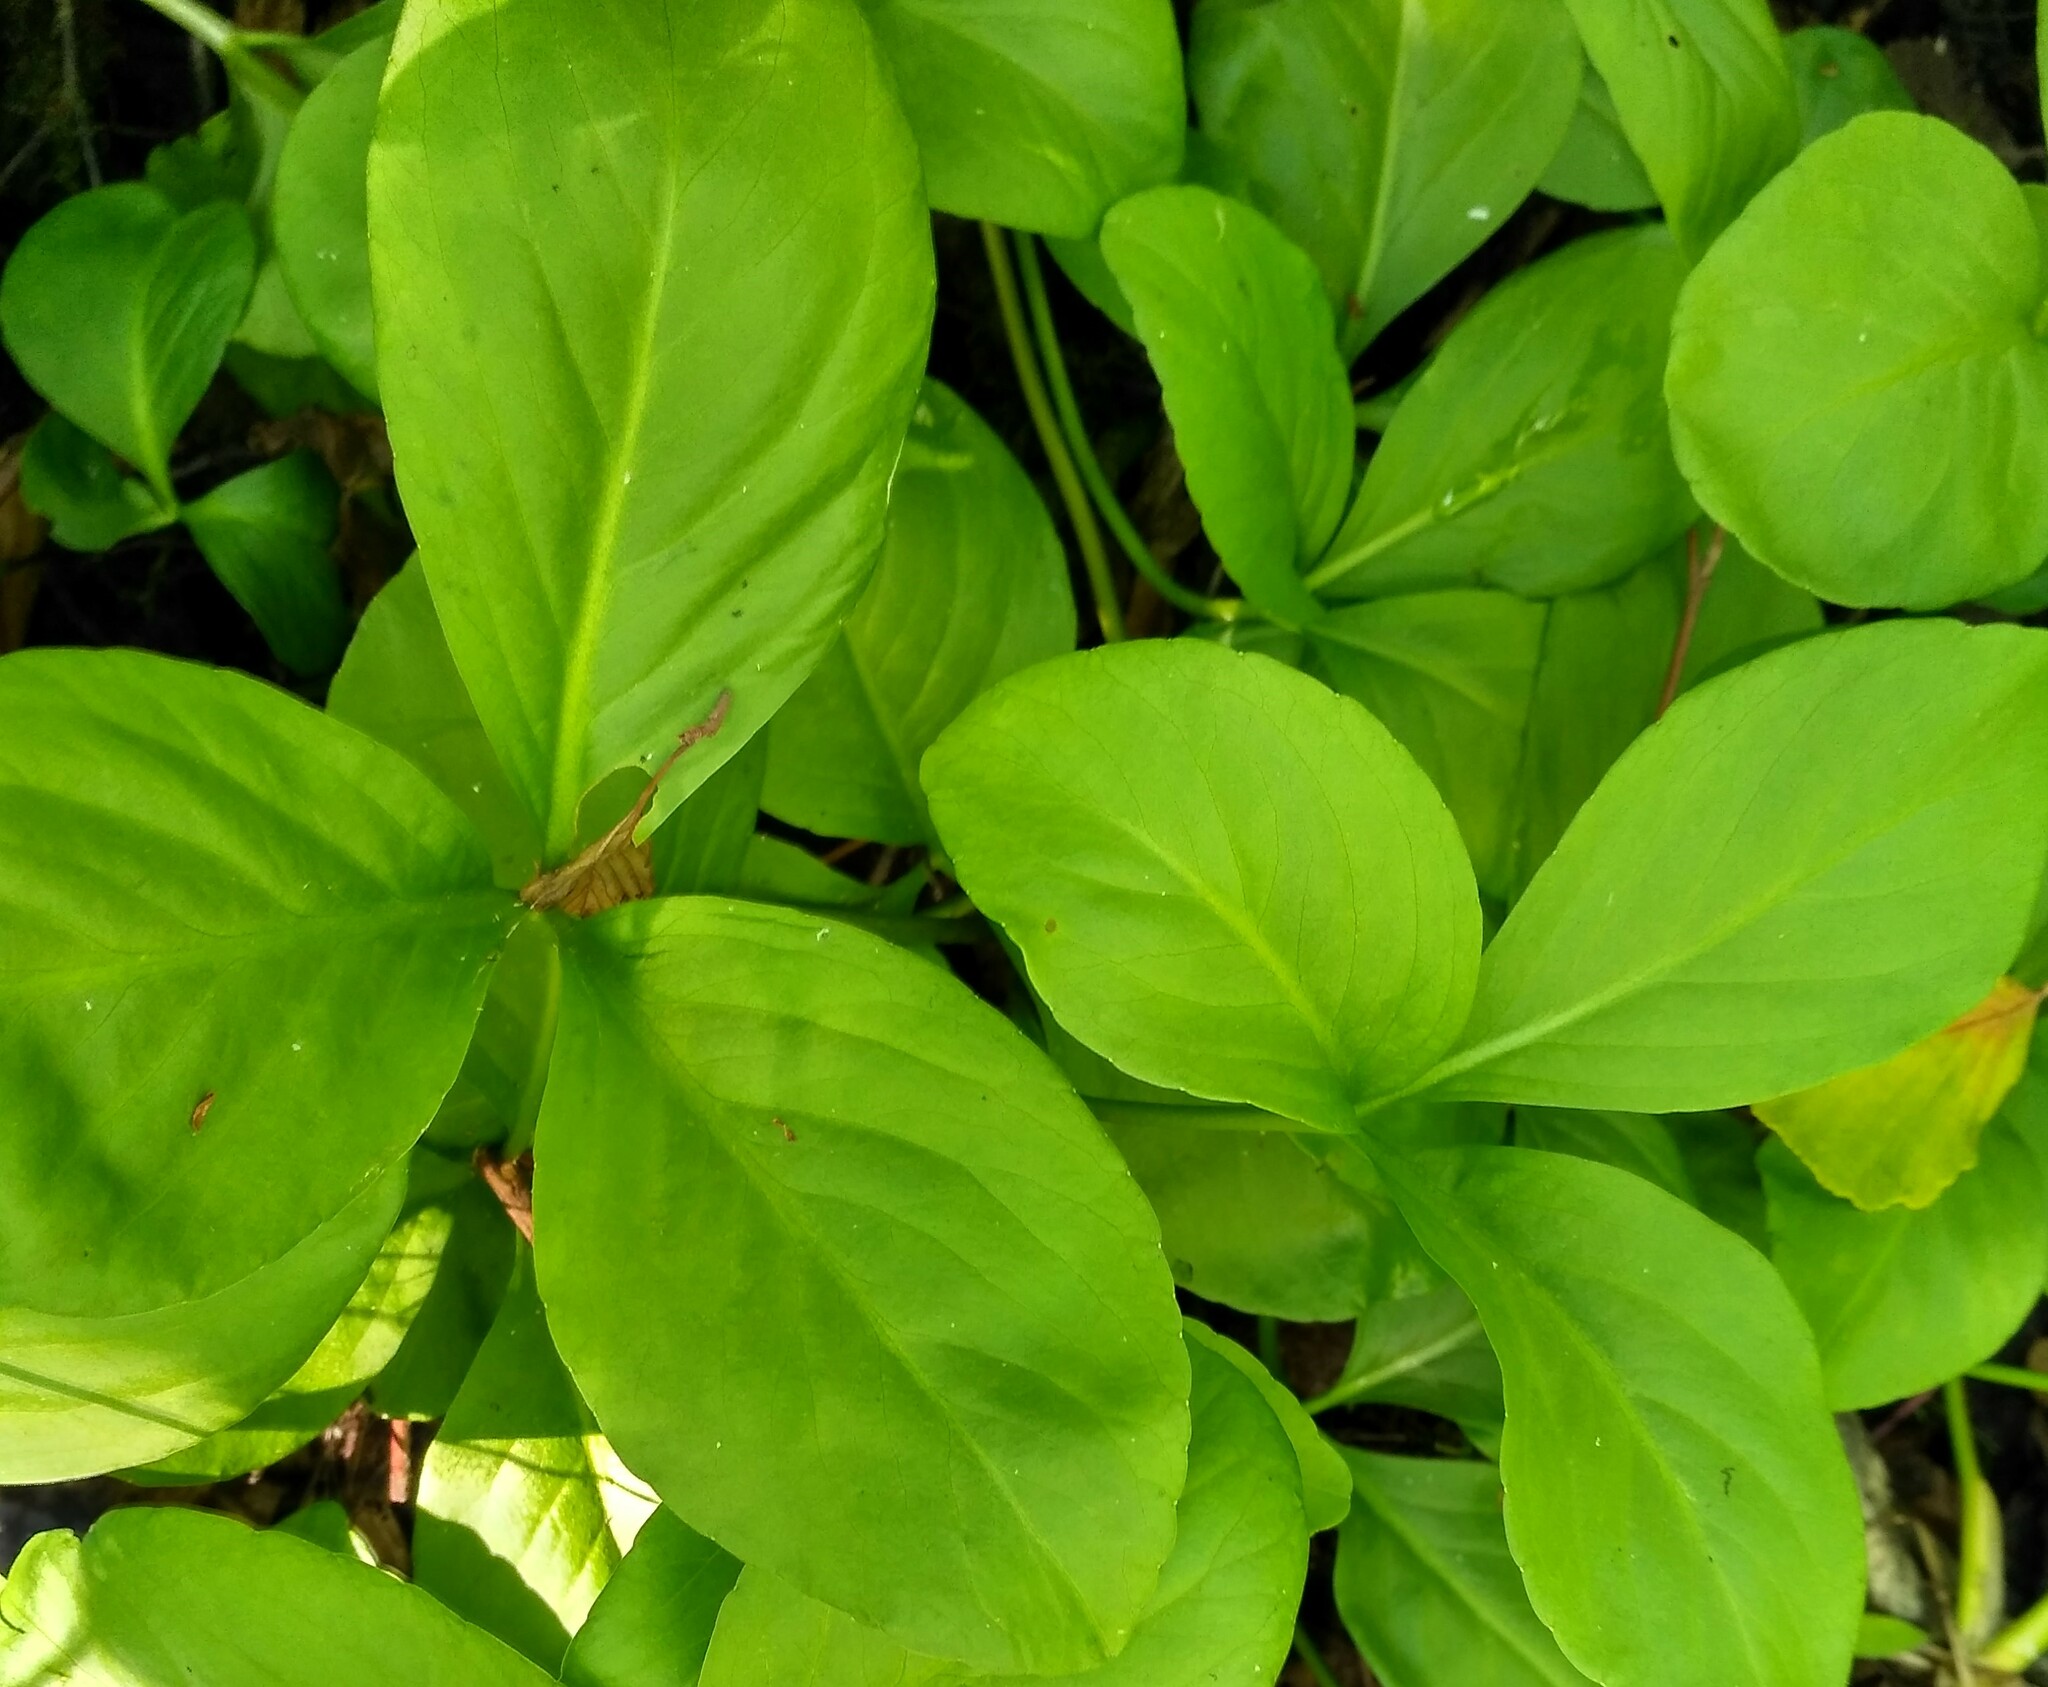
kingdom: Plantae
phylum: Tracheophyta
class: Magnoliopsida
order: Asterales
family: Menyanthaceae
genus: Menyanthes
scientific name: Menyanthes trifoliata
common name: Bogbean
